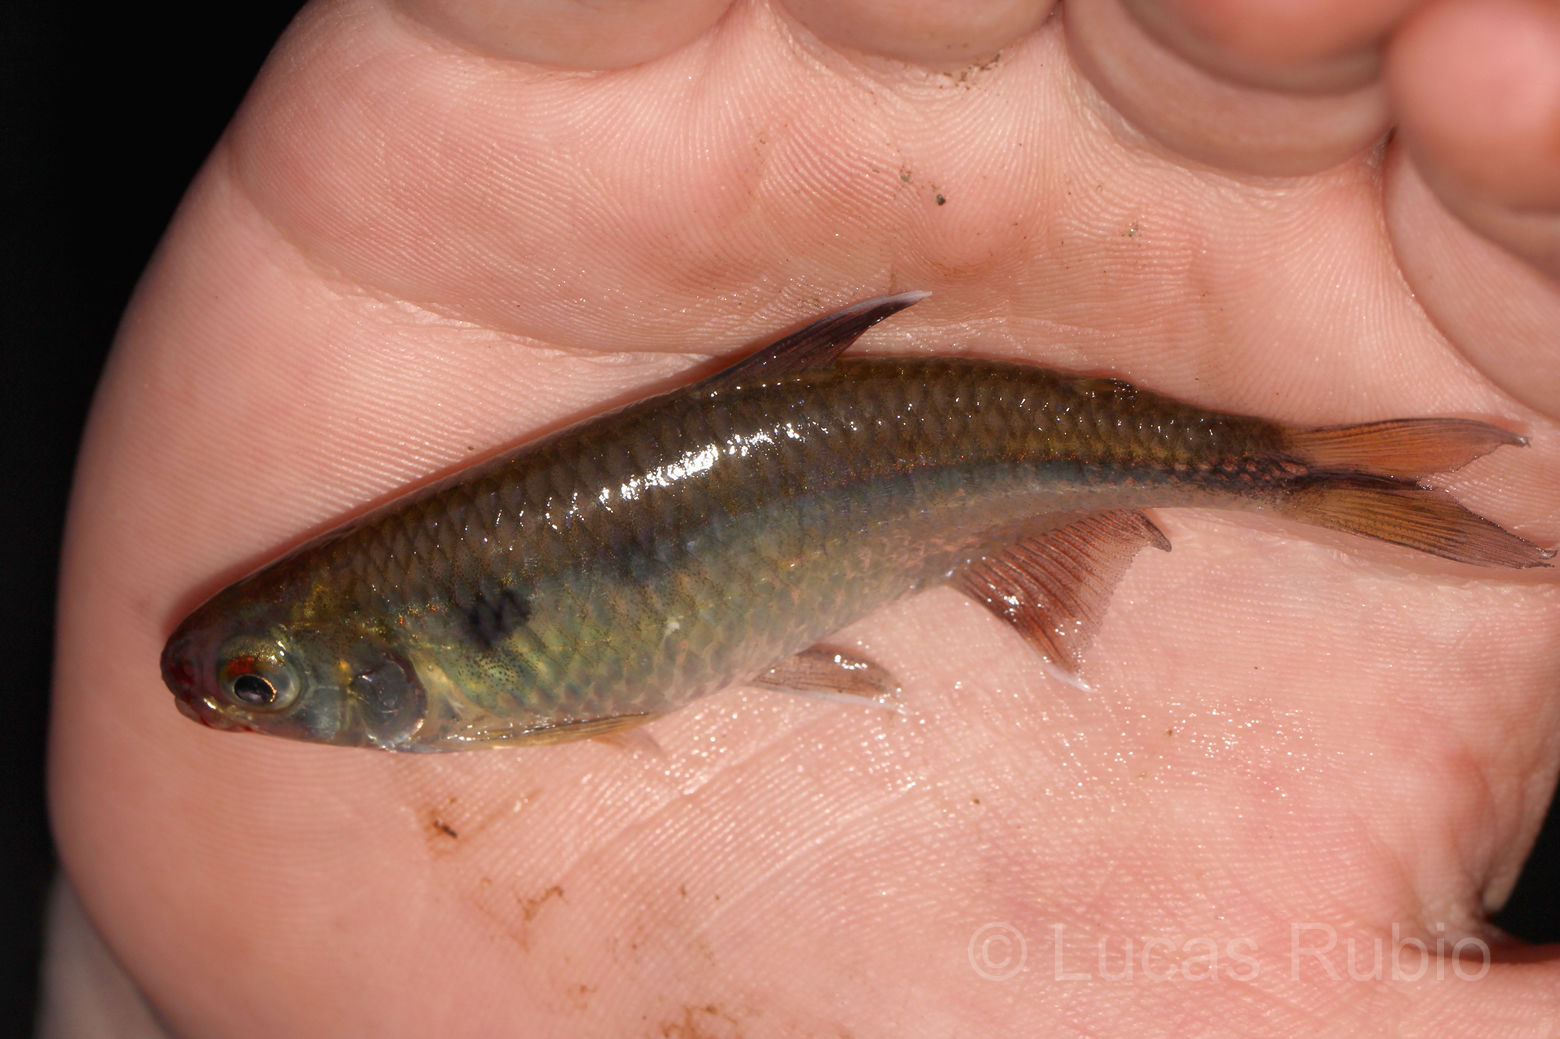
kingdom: Animalia
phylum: Chordata
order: Characiformes
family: Characidae
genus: Bryconamericus
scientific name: Bryconamericus iheringii
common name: Tetra
